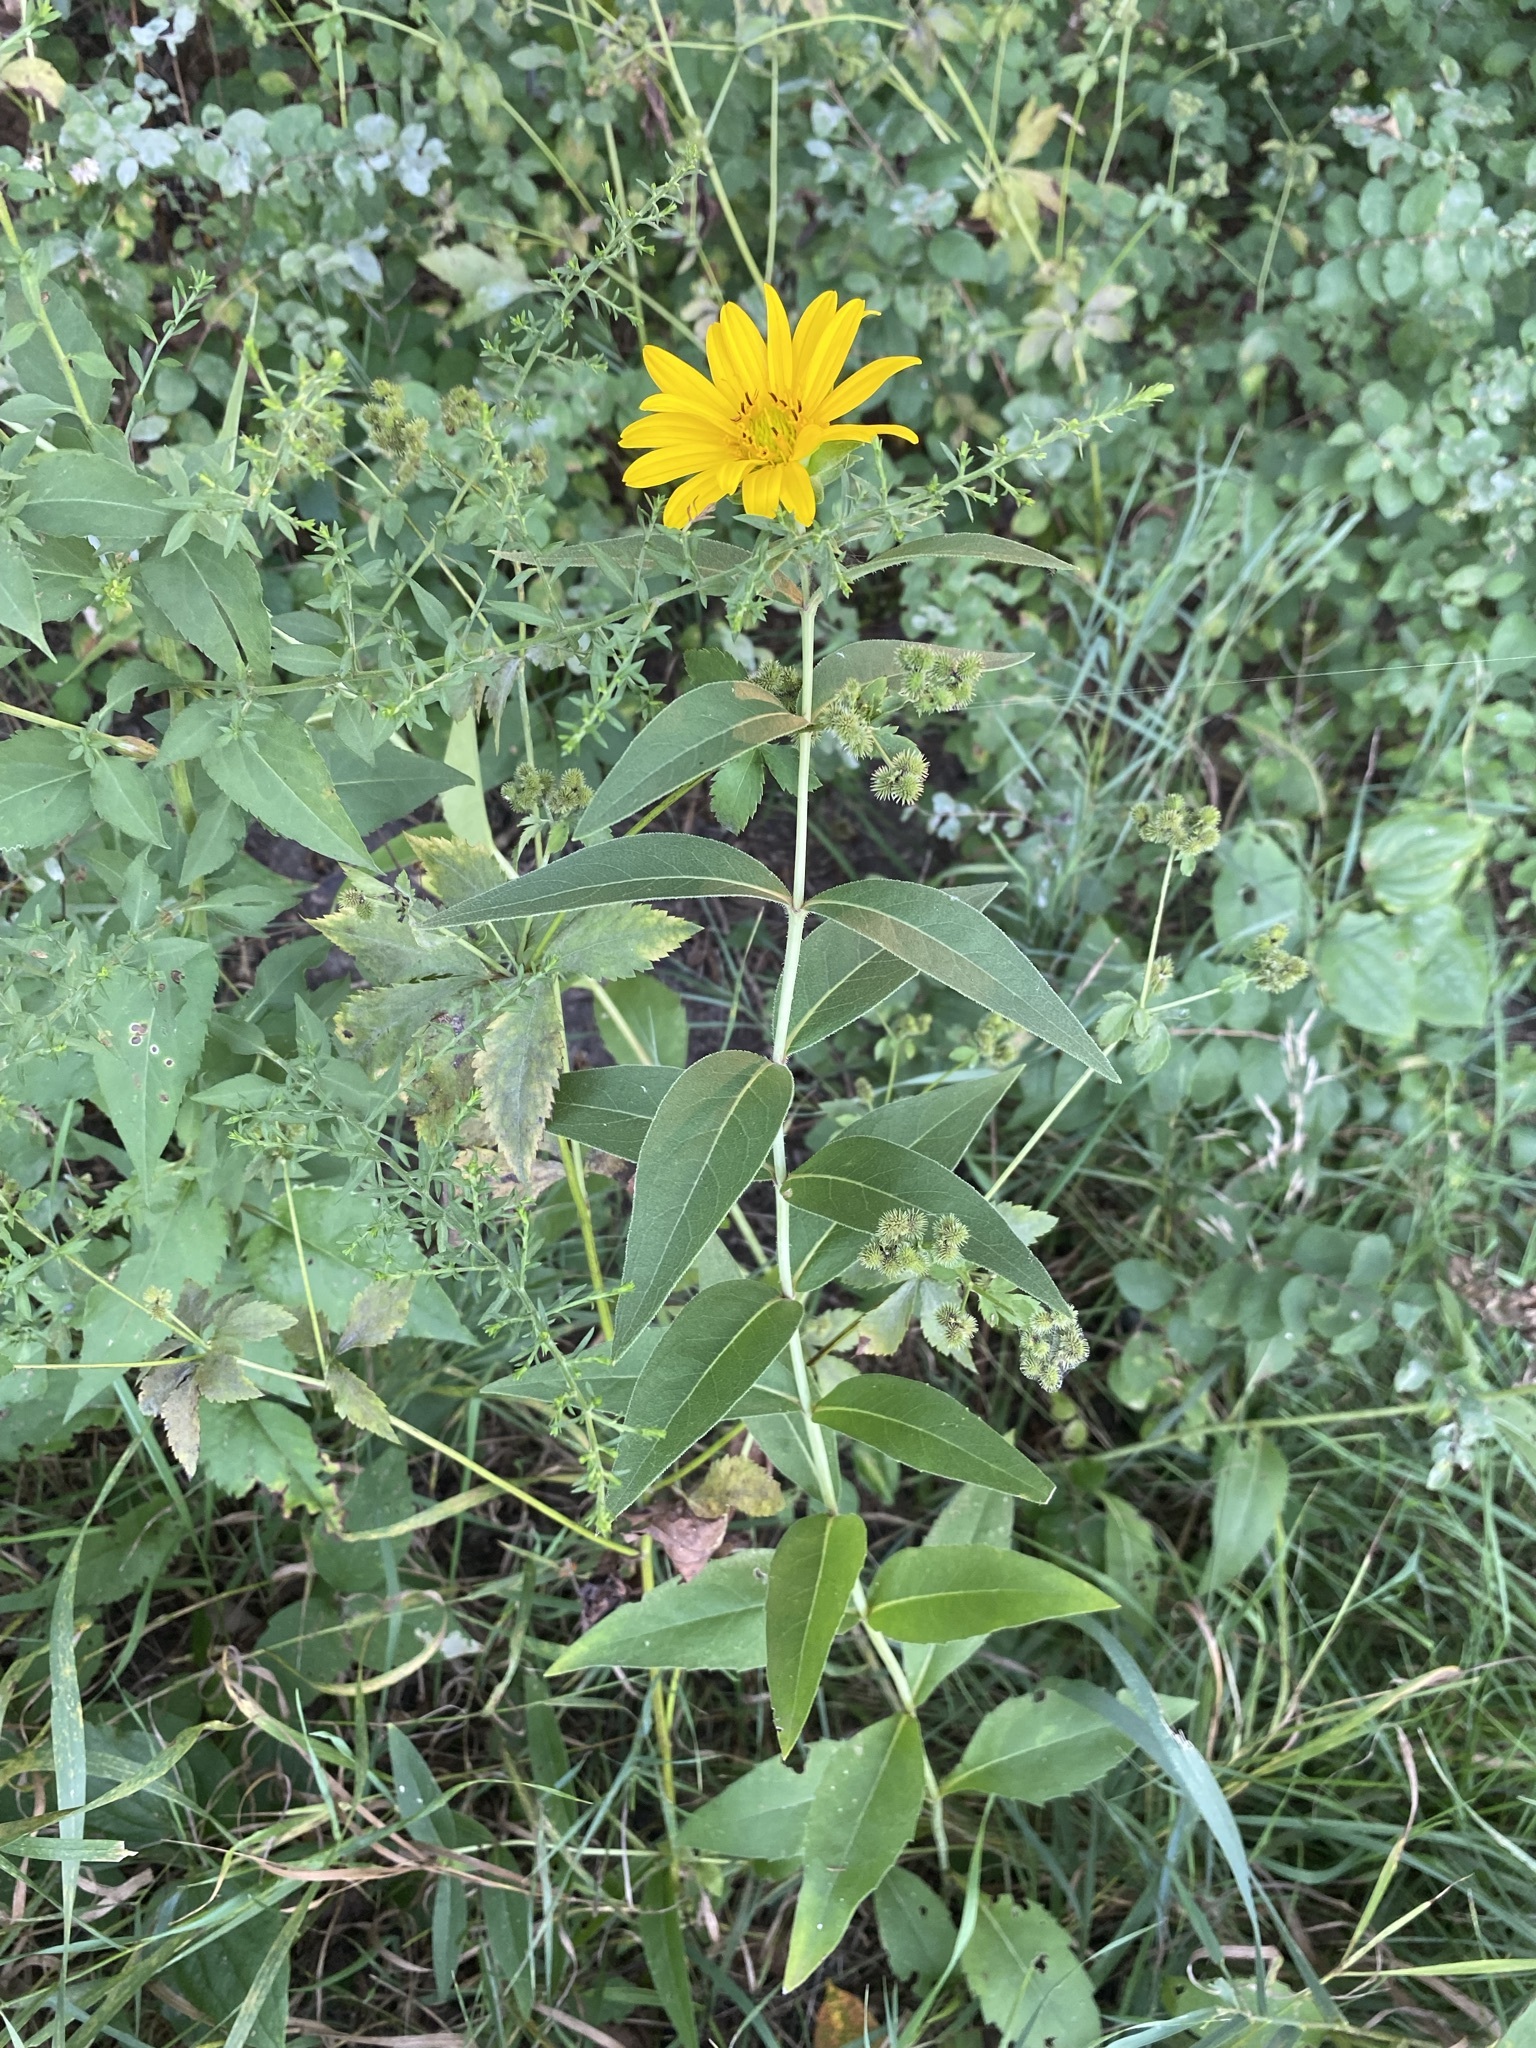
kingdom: Plantae
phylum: Tracheophyta
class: Magnoliopsida
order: Asterales
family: Asteraceae
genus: Silphium
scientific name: Silphium integrifolium
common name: Whole-leaf rosinweed
